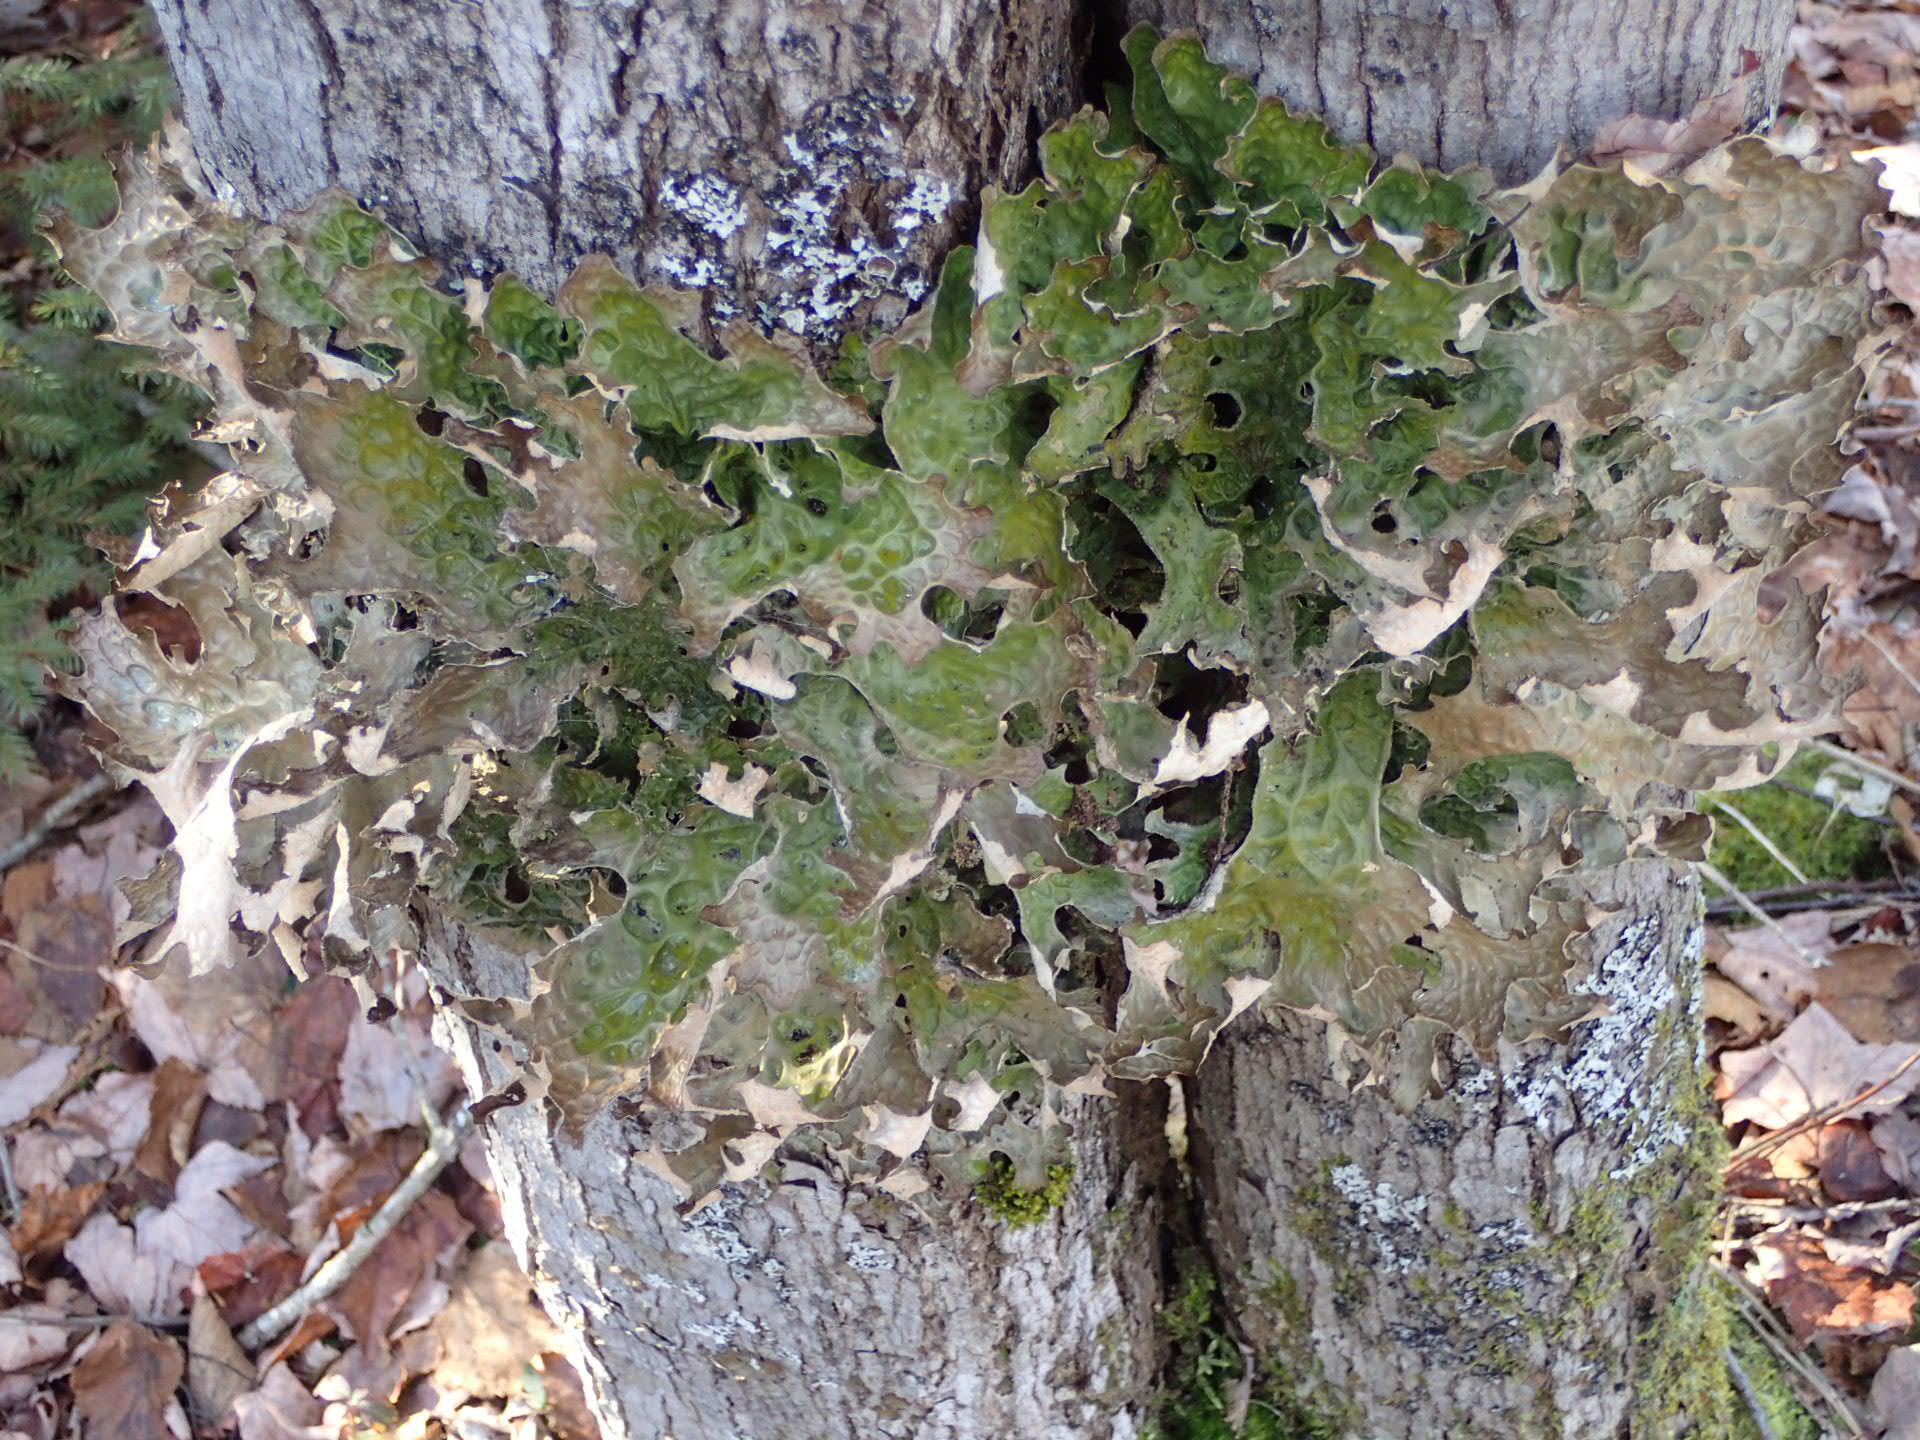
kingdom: Fungi
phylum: Ascomycota
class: Lecanoromycetes
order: Peltigerales
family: Lobariaceae
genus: Lobaria
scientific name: Lobaria pulmonaria
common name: Lungwort
